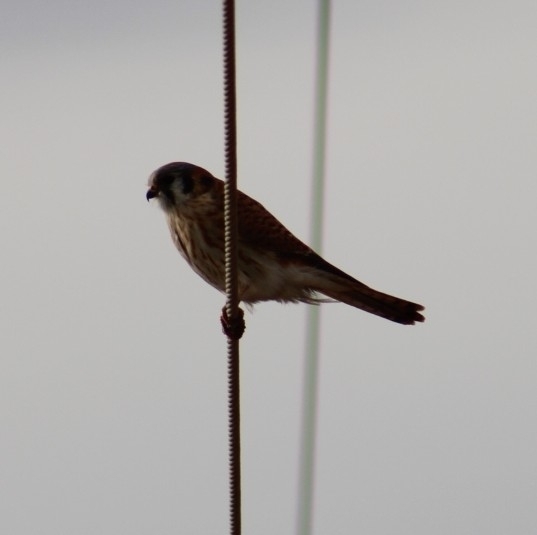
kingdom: Animalia
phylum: Chordata
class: Aves
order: Falconiformes
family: Falconidae
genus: Falco
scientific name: Falco sparverius
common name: American kestrel
